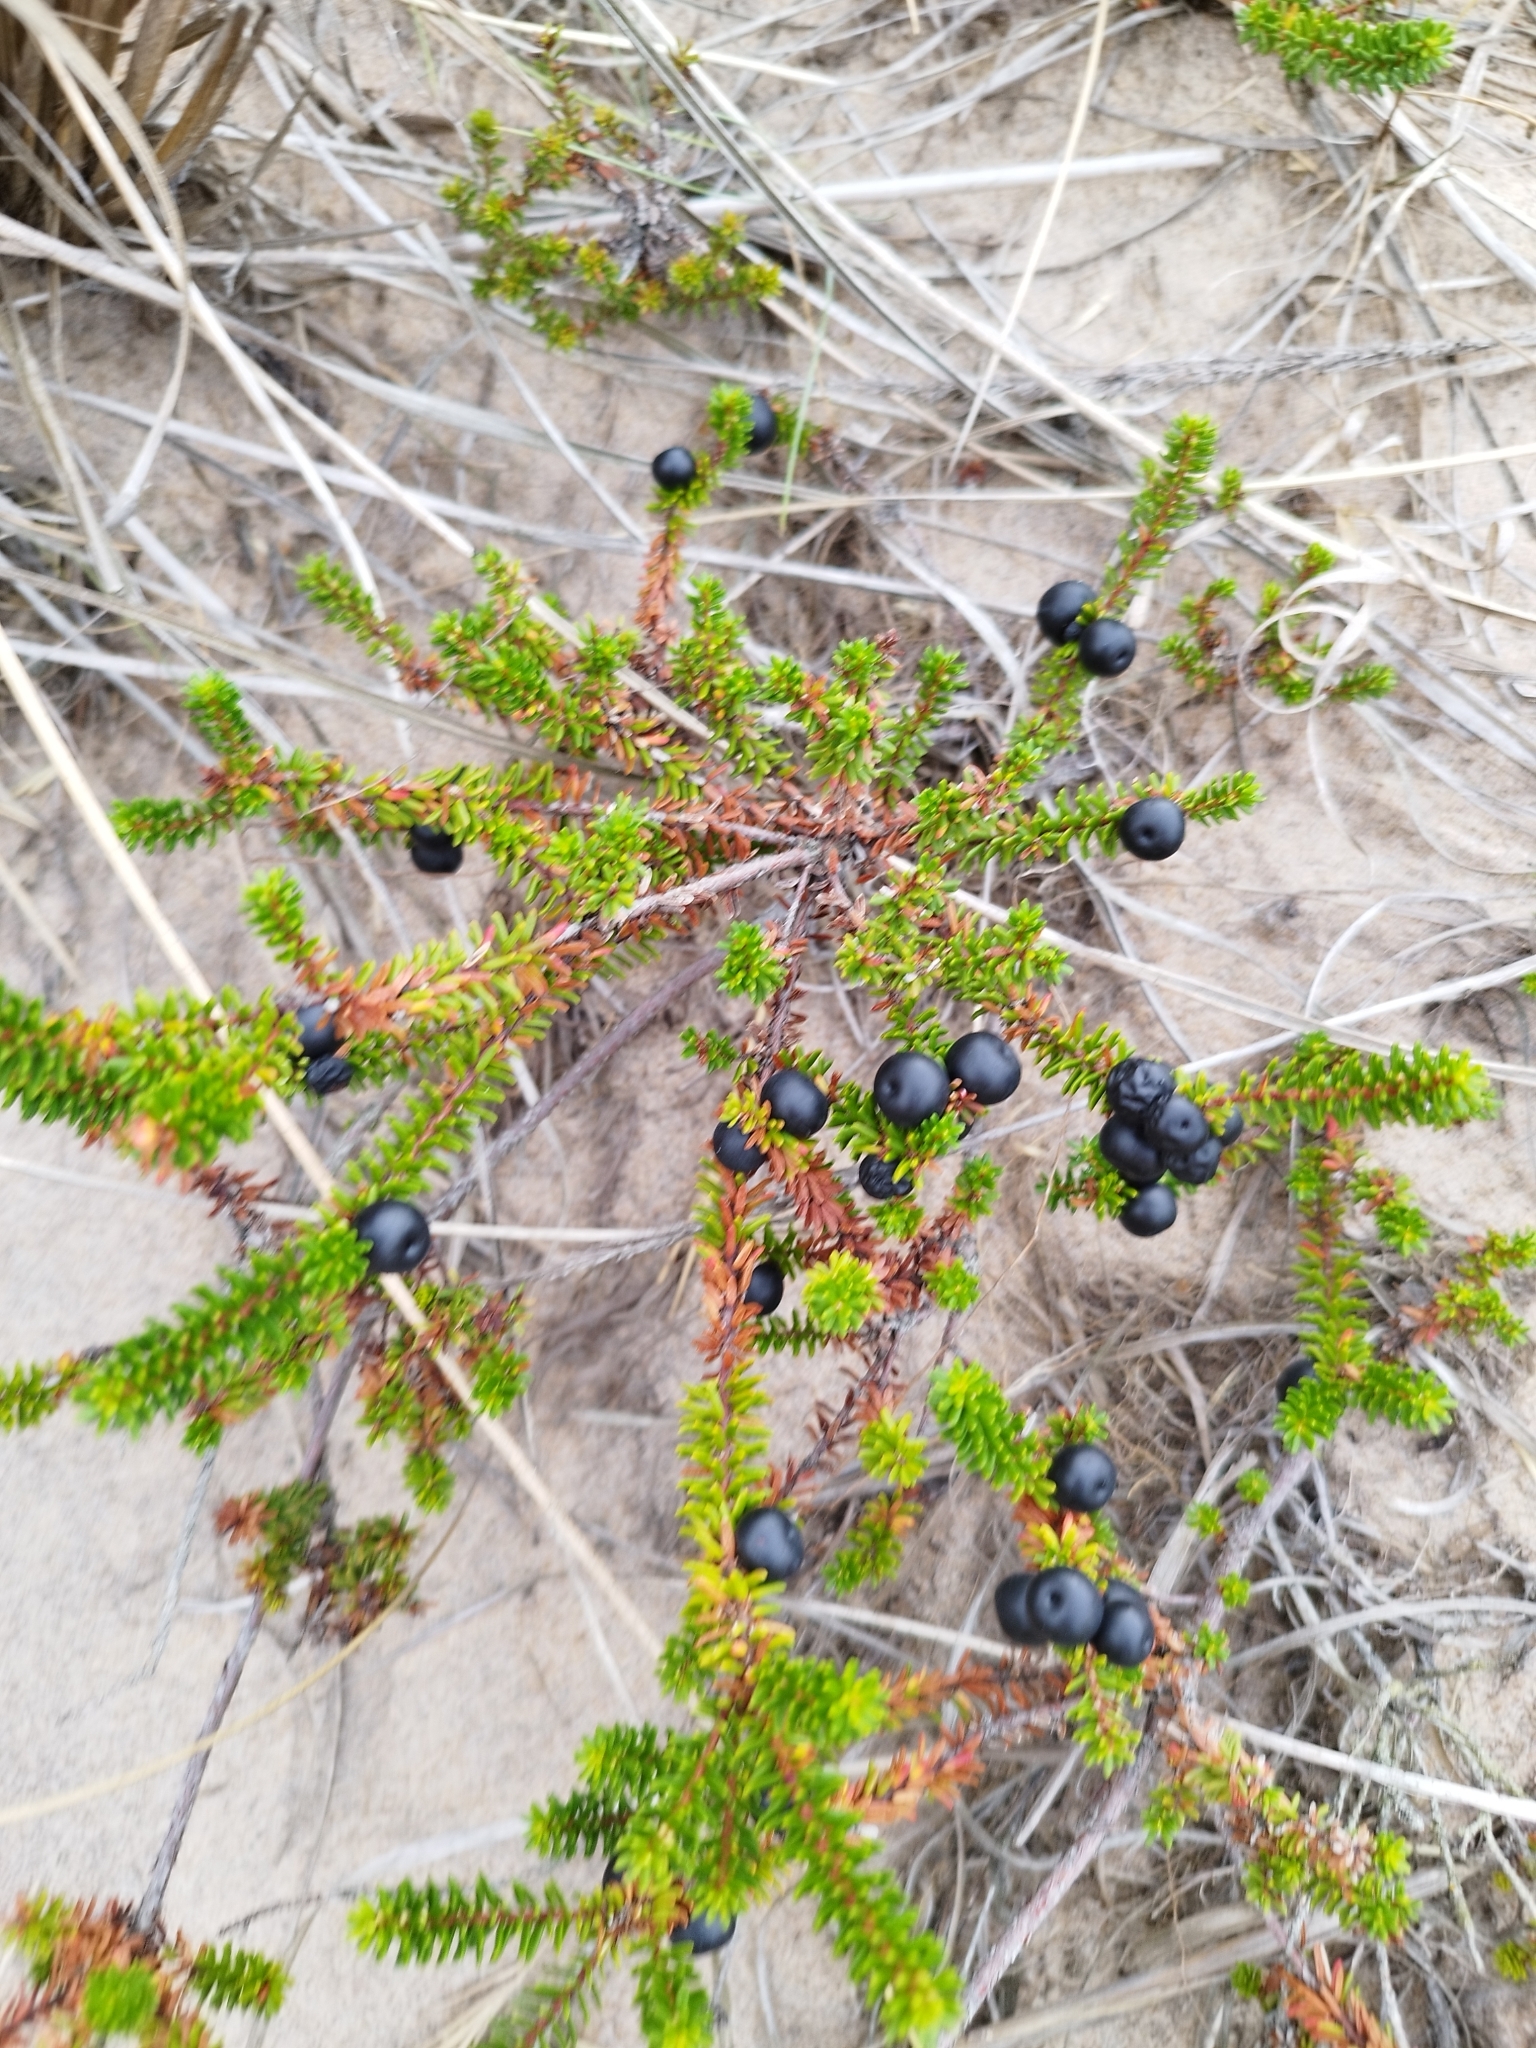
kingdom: Plantae
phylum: Tracheophyta
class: Magnoliopsida
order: Ericales
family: Ericaceae
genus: Empetrum
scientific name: Empetrum nigrum
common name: Black crowberry
